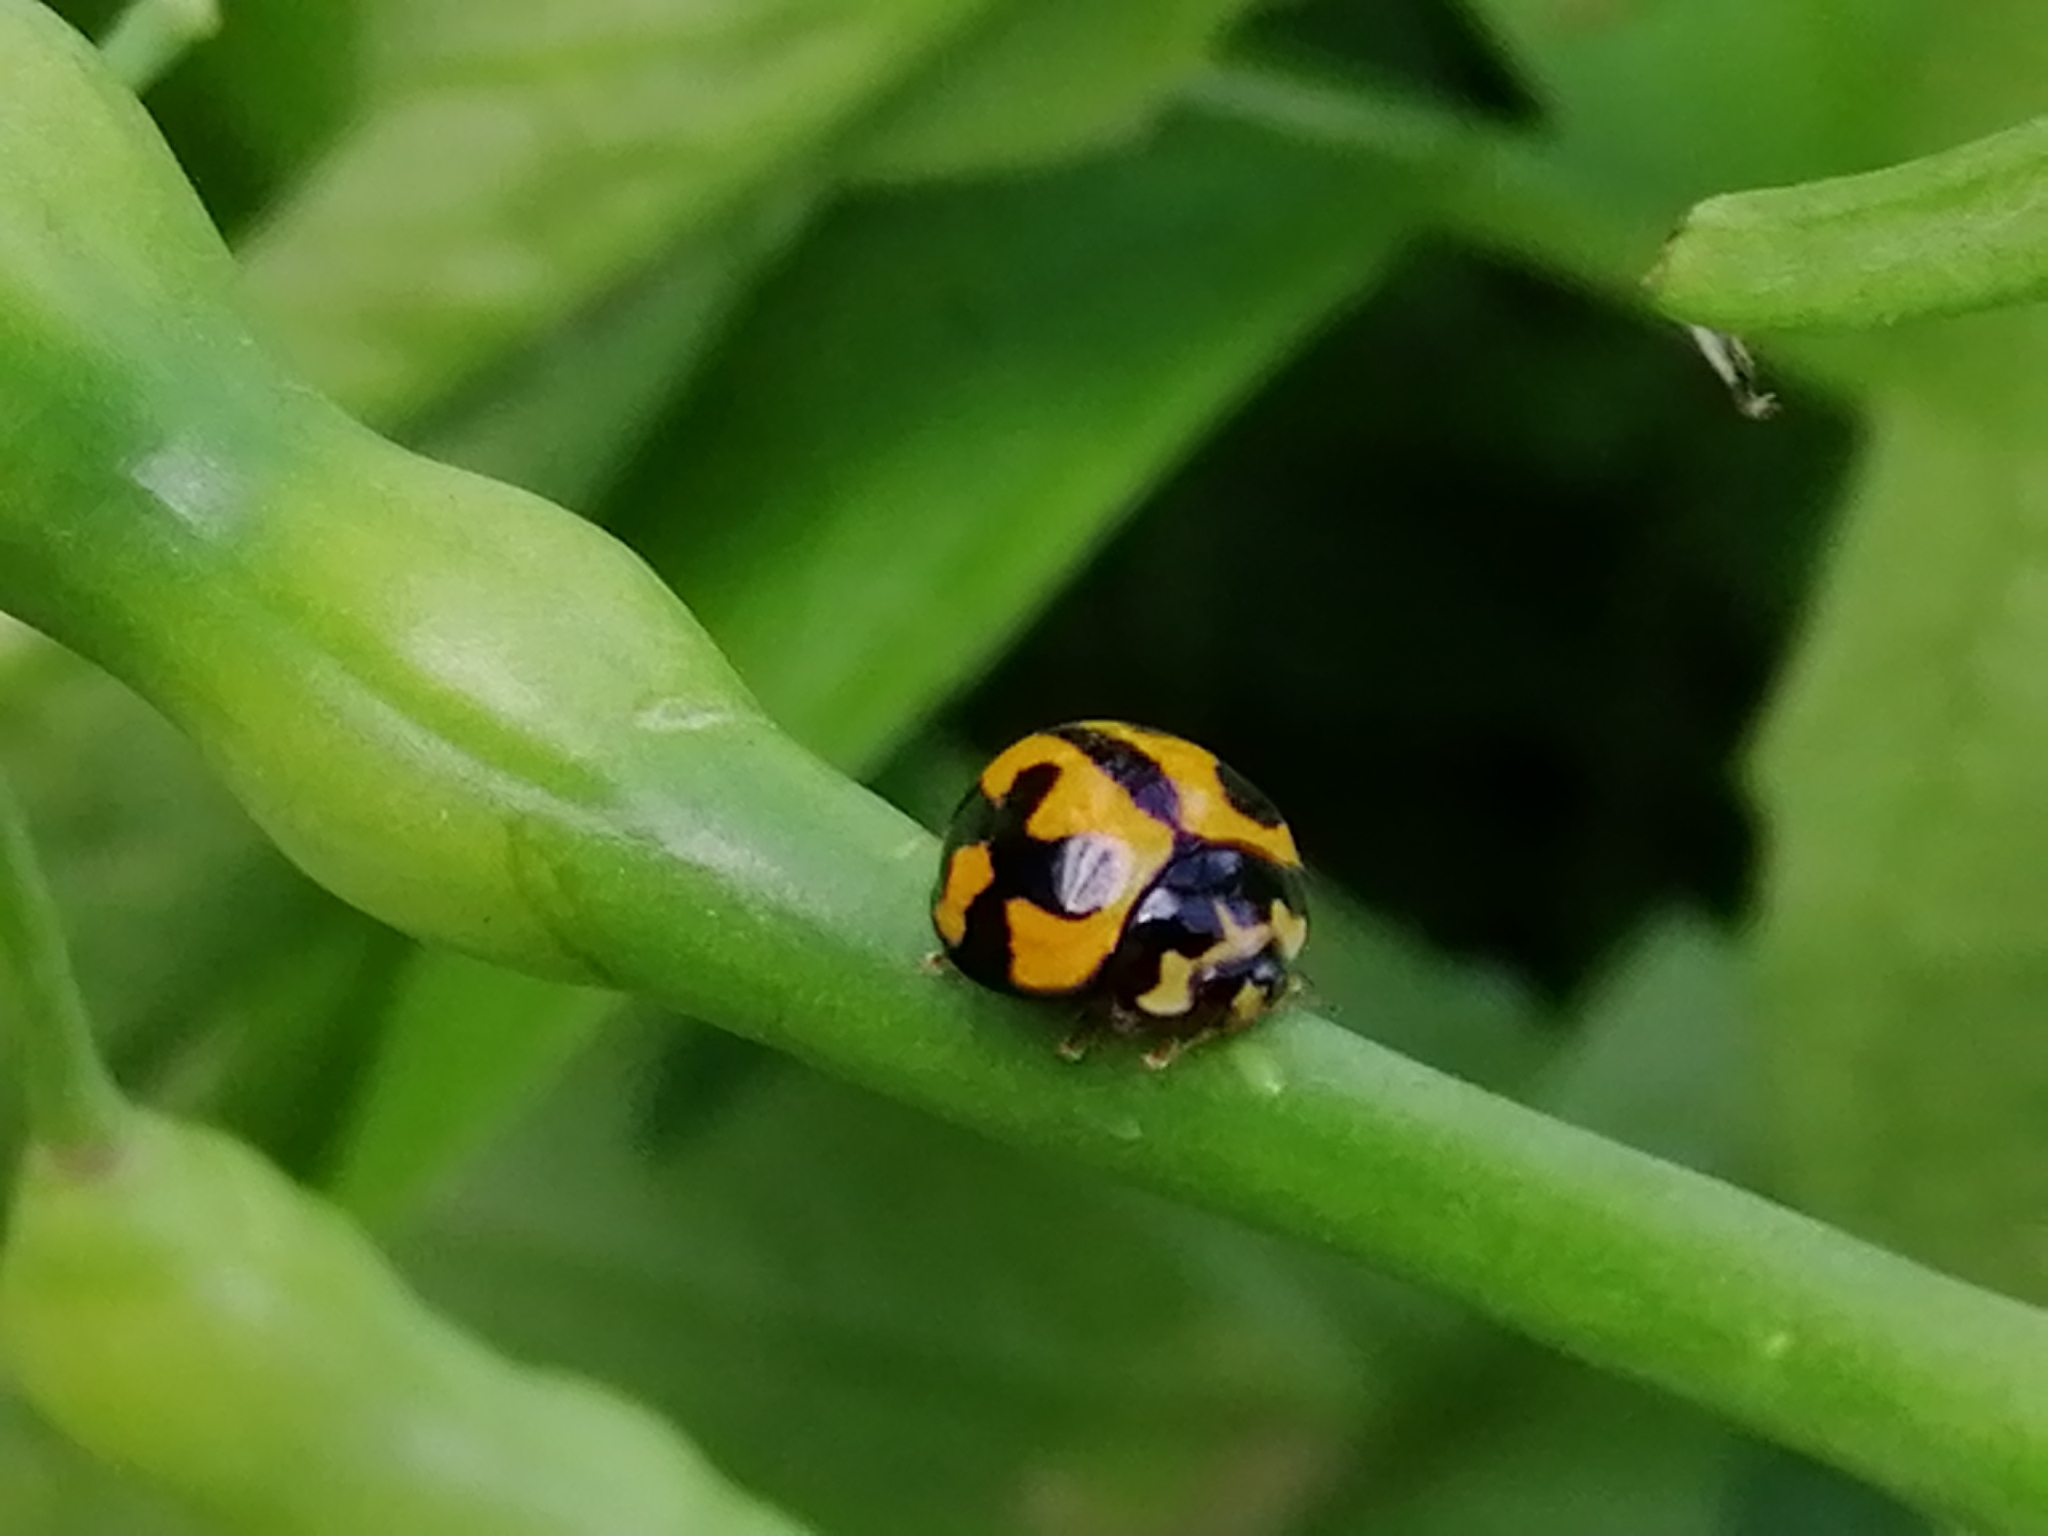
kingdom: Animalia
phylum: Arthropoda
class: Insecta
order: Coleoptera
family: Coccinellidae
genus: Coelophora
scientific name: Coelophora inaequalis
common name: Common australian lady beetle
